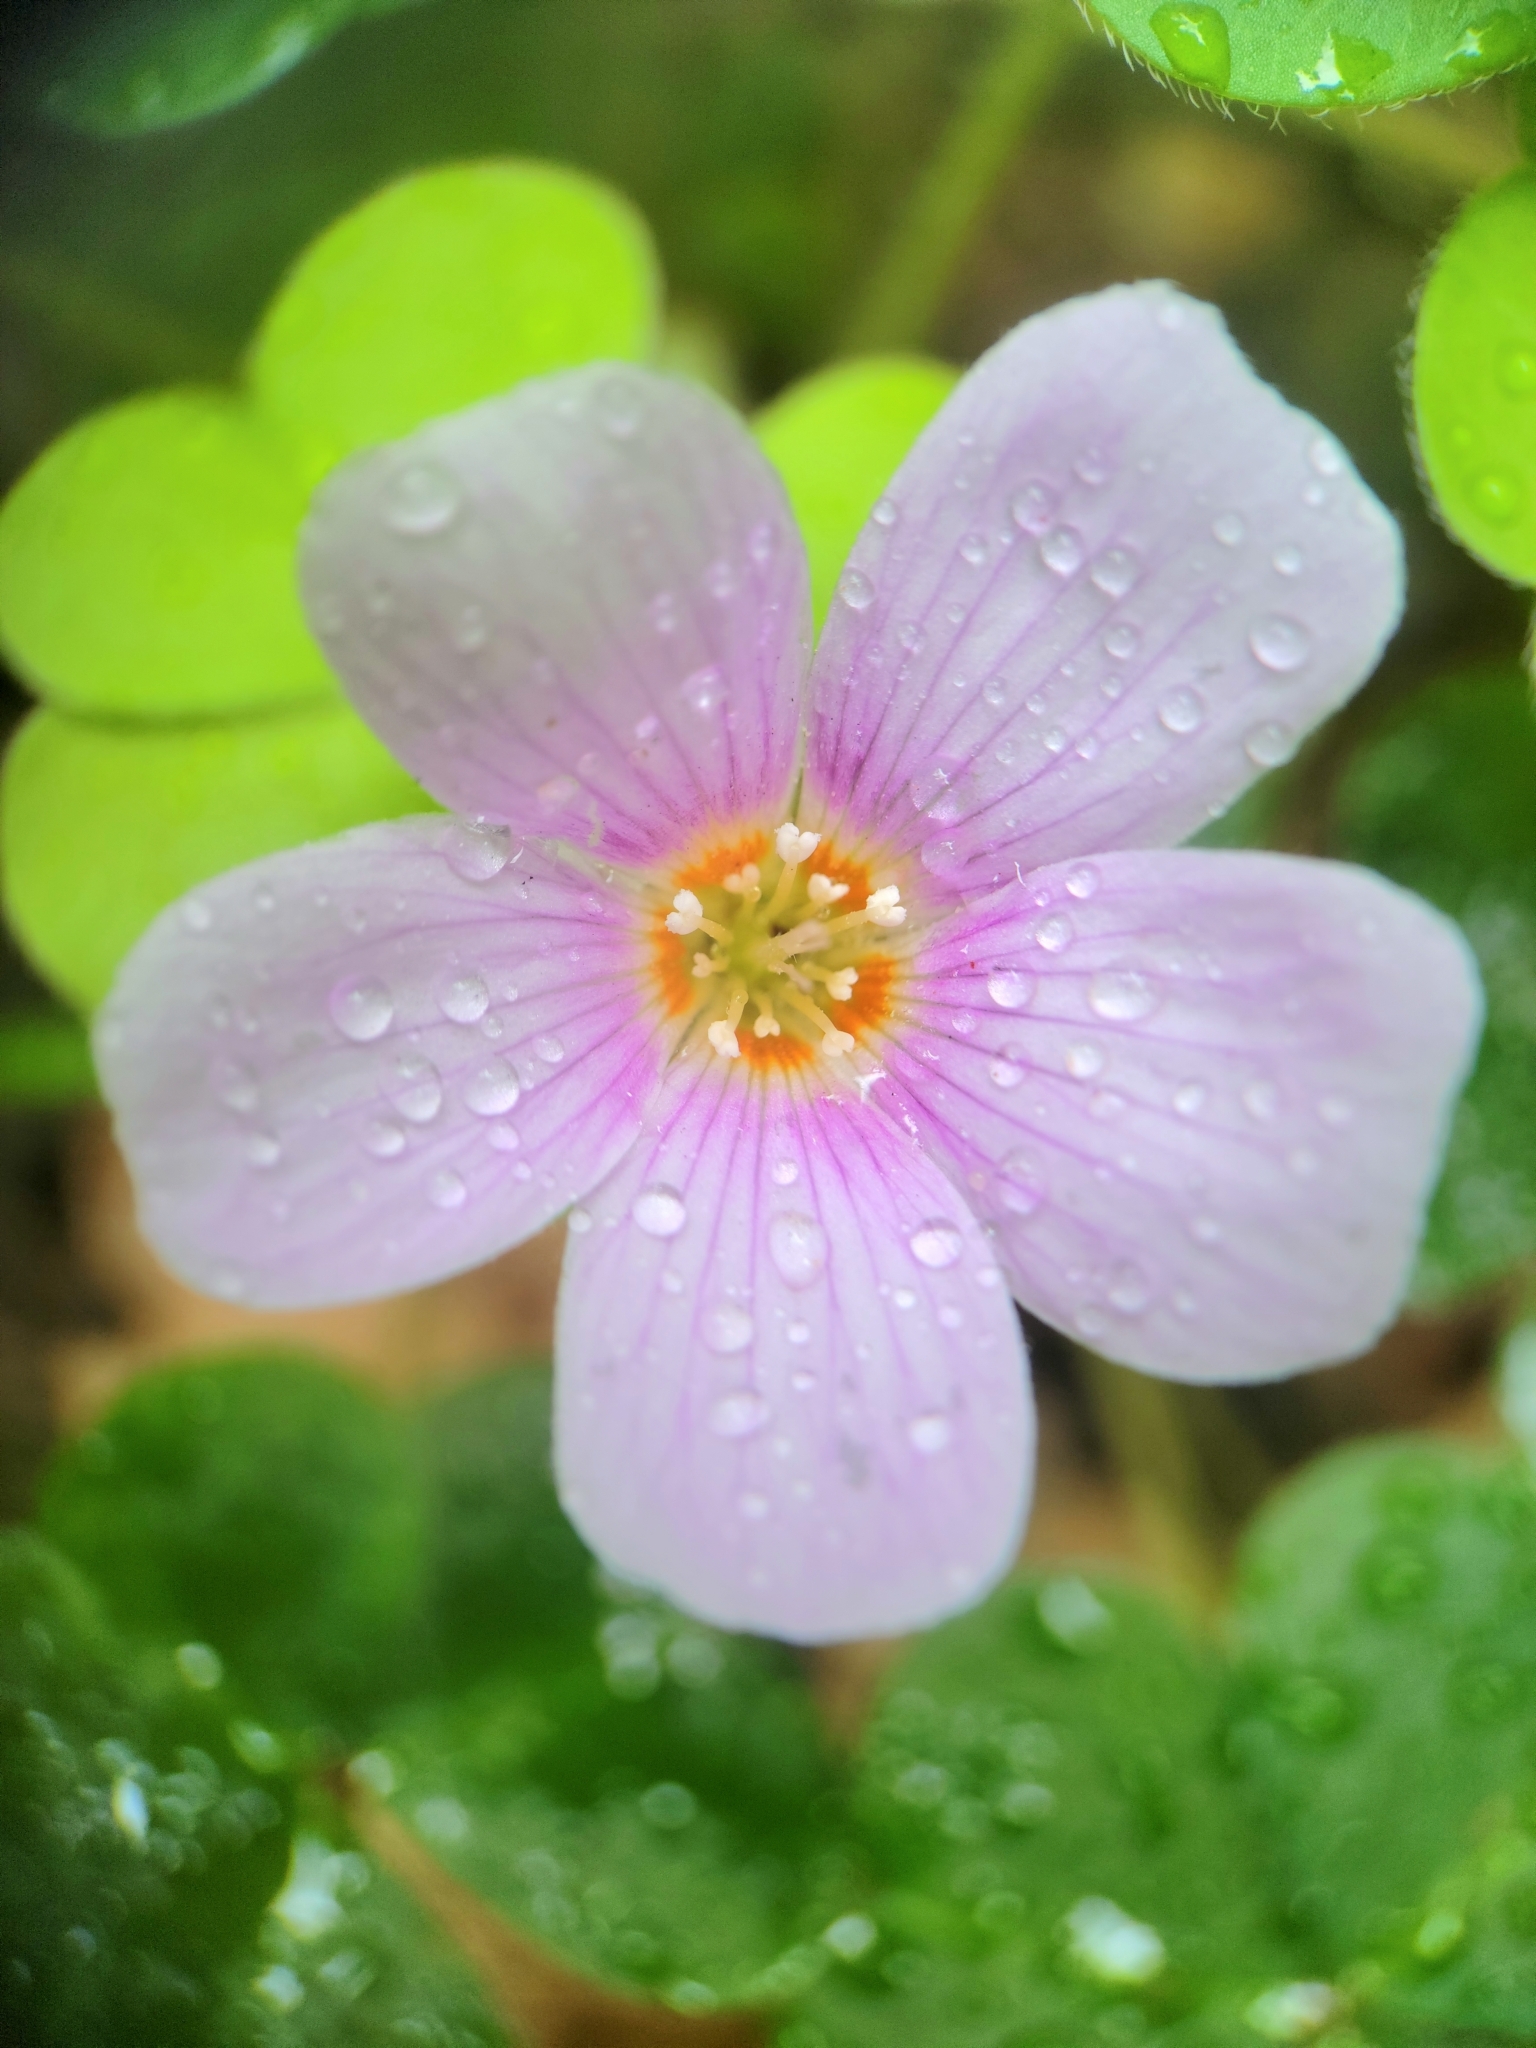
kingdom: Plantae
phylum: Tracheophyta
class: Magnoliopsida
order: Oxalidales
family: Oxalidaceae
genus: Oxalis
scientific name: Oxalis oregana
